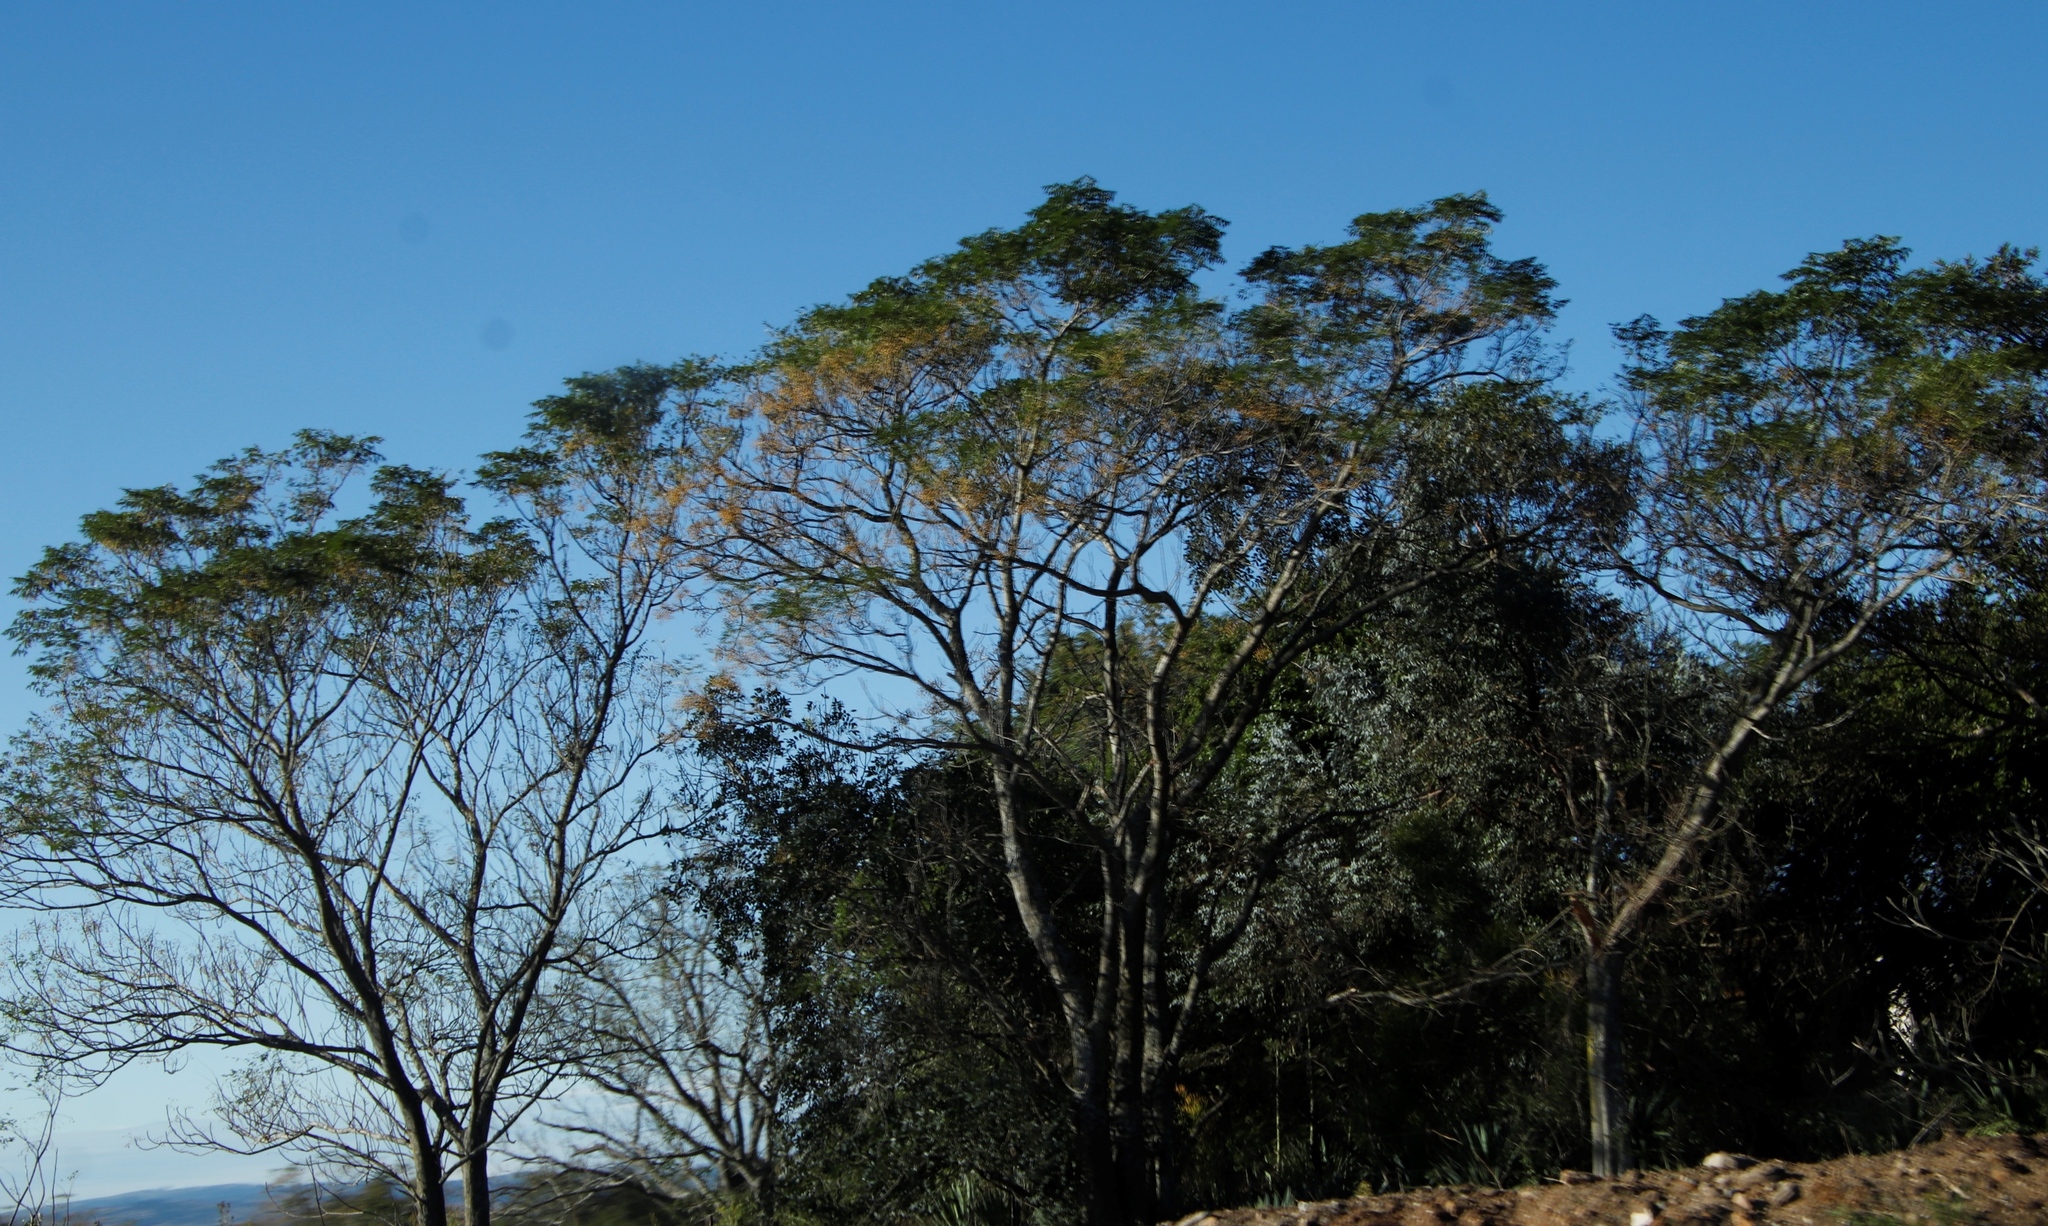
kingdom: Plantae
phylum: Tracheophyta
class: Magnoliopsida
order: Sapindales
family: Meliaceae
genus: Melia
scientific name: Melia azedarach
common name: Chinaberrytree
